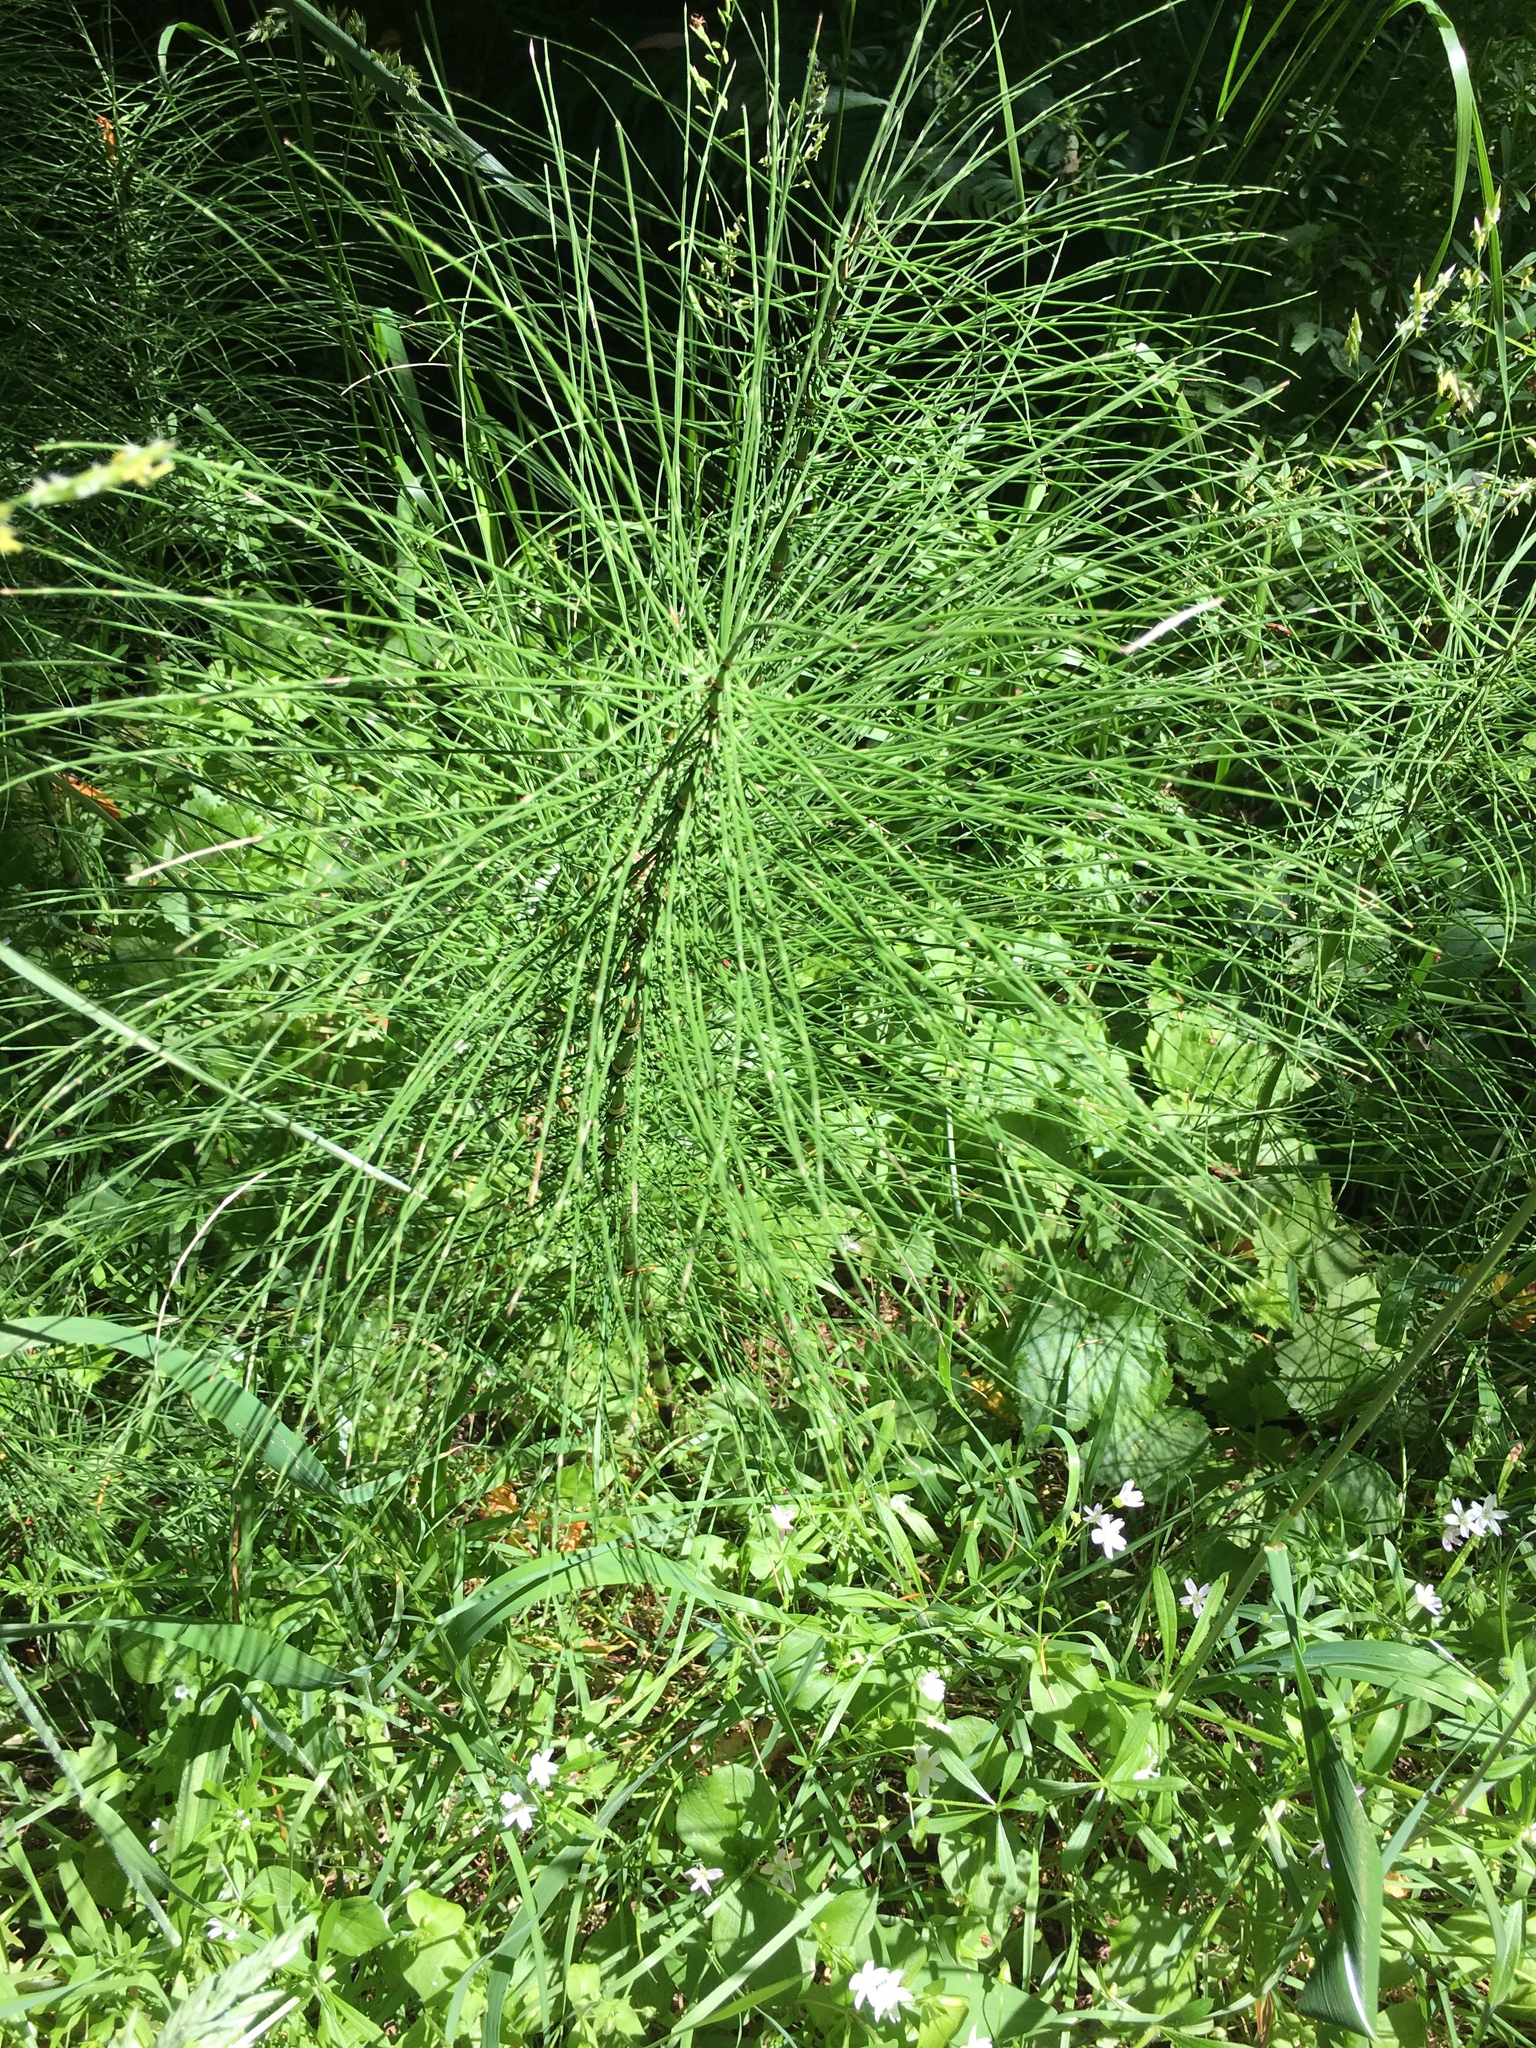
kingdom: Plantae
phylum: Tracheophyta
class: Polypodiopsida
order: Equisetales
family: Equisetaceae
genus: Equisetum
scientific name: Equisetum telmateia
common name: Great horsetail
